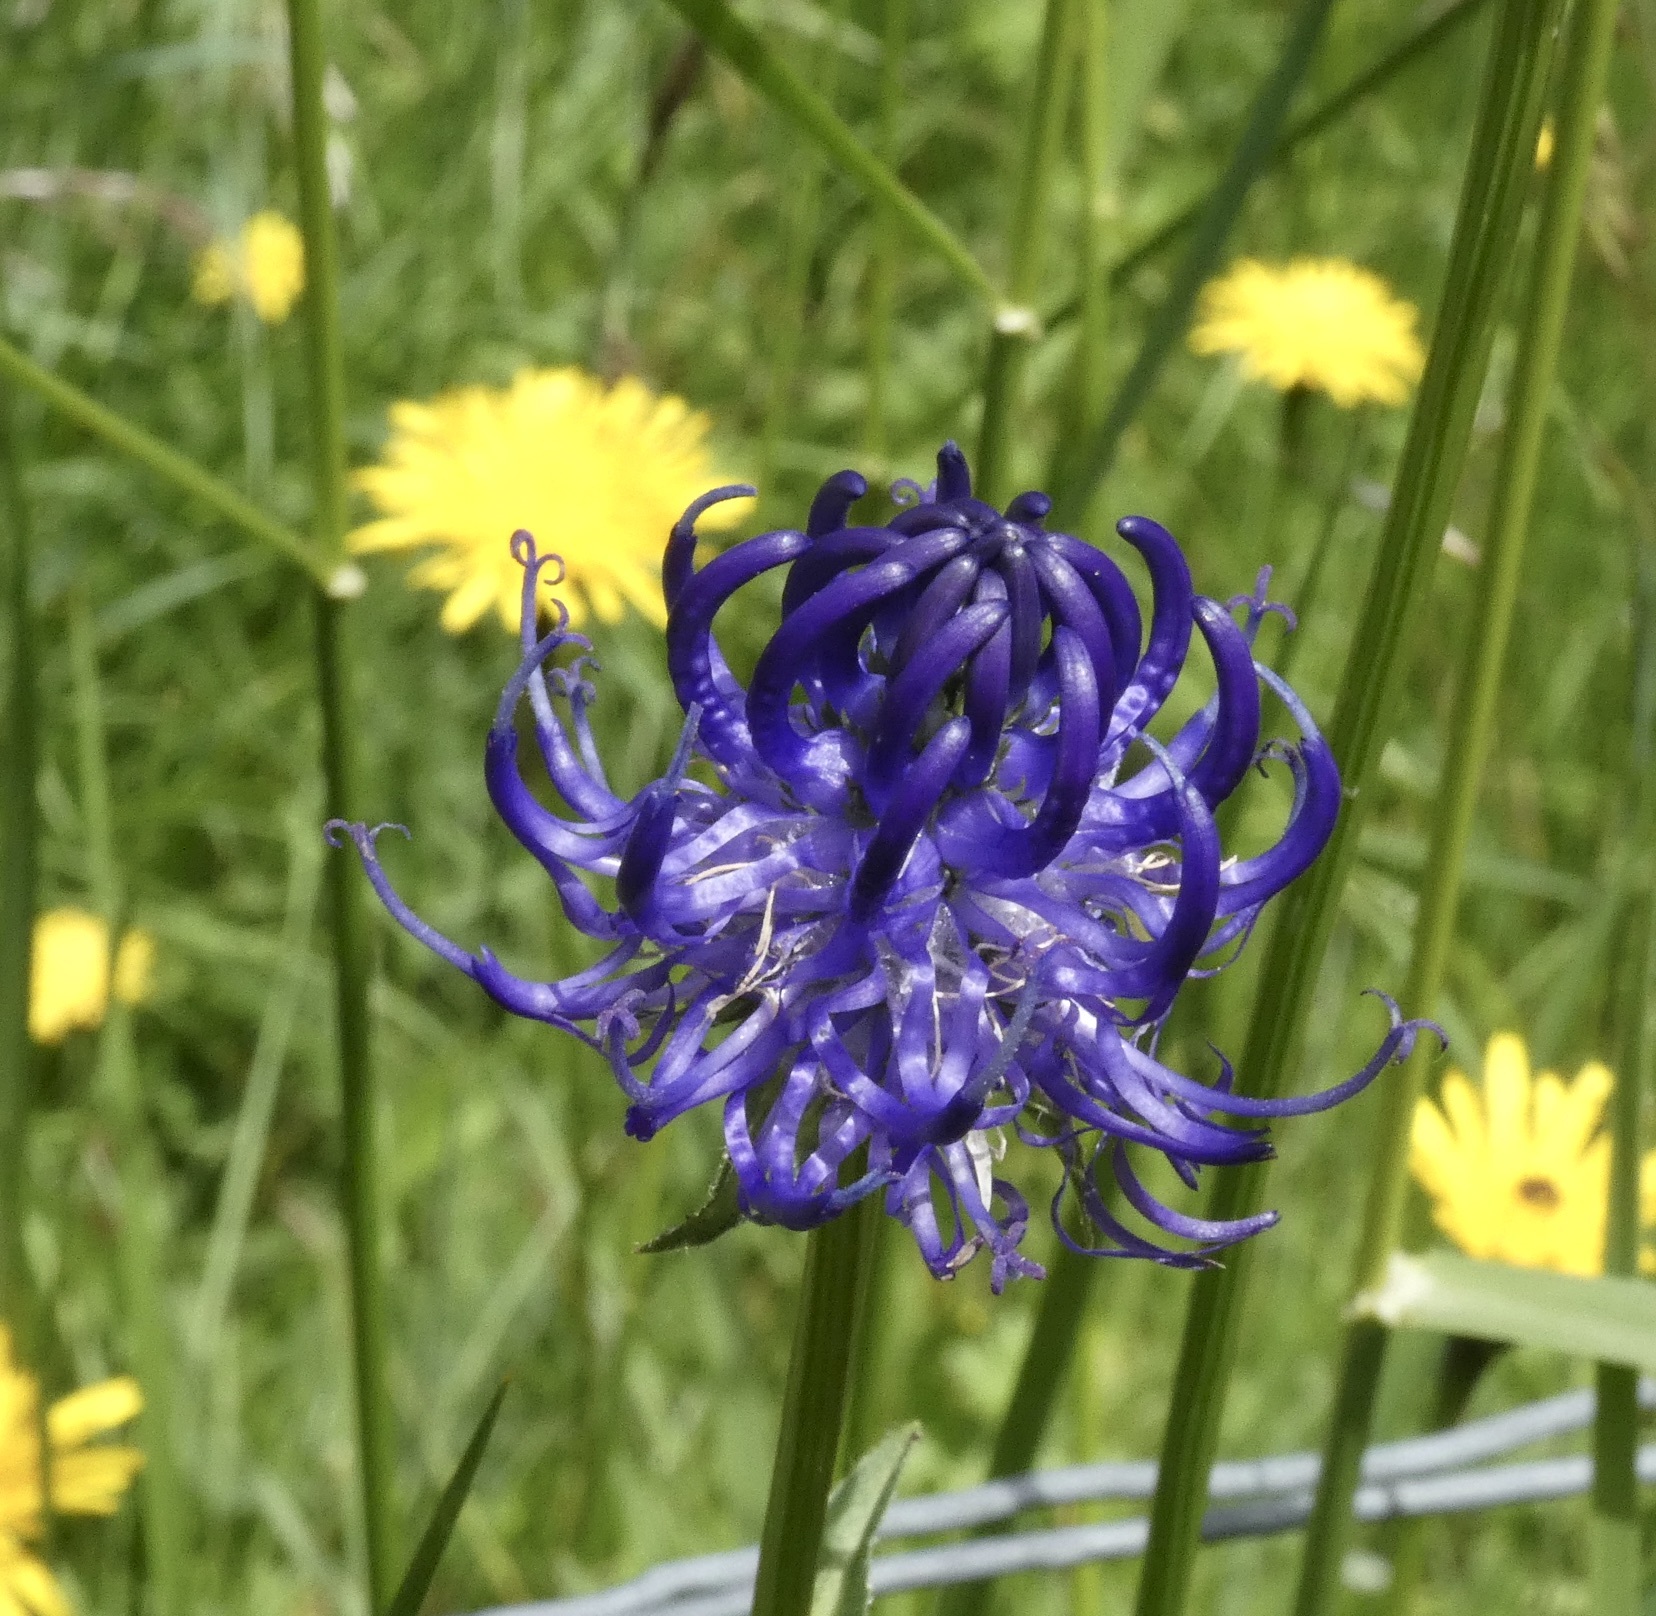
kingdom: Plantae
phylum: Tracheophyta
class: Magnoliopsida
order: Asterales
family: Campanulaceae
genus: Phyteuma
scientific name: Phyteuma orbiculare
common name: Round-headed rampion
